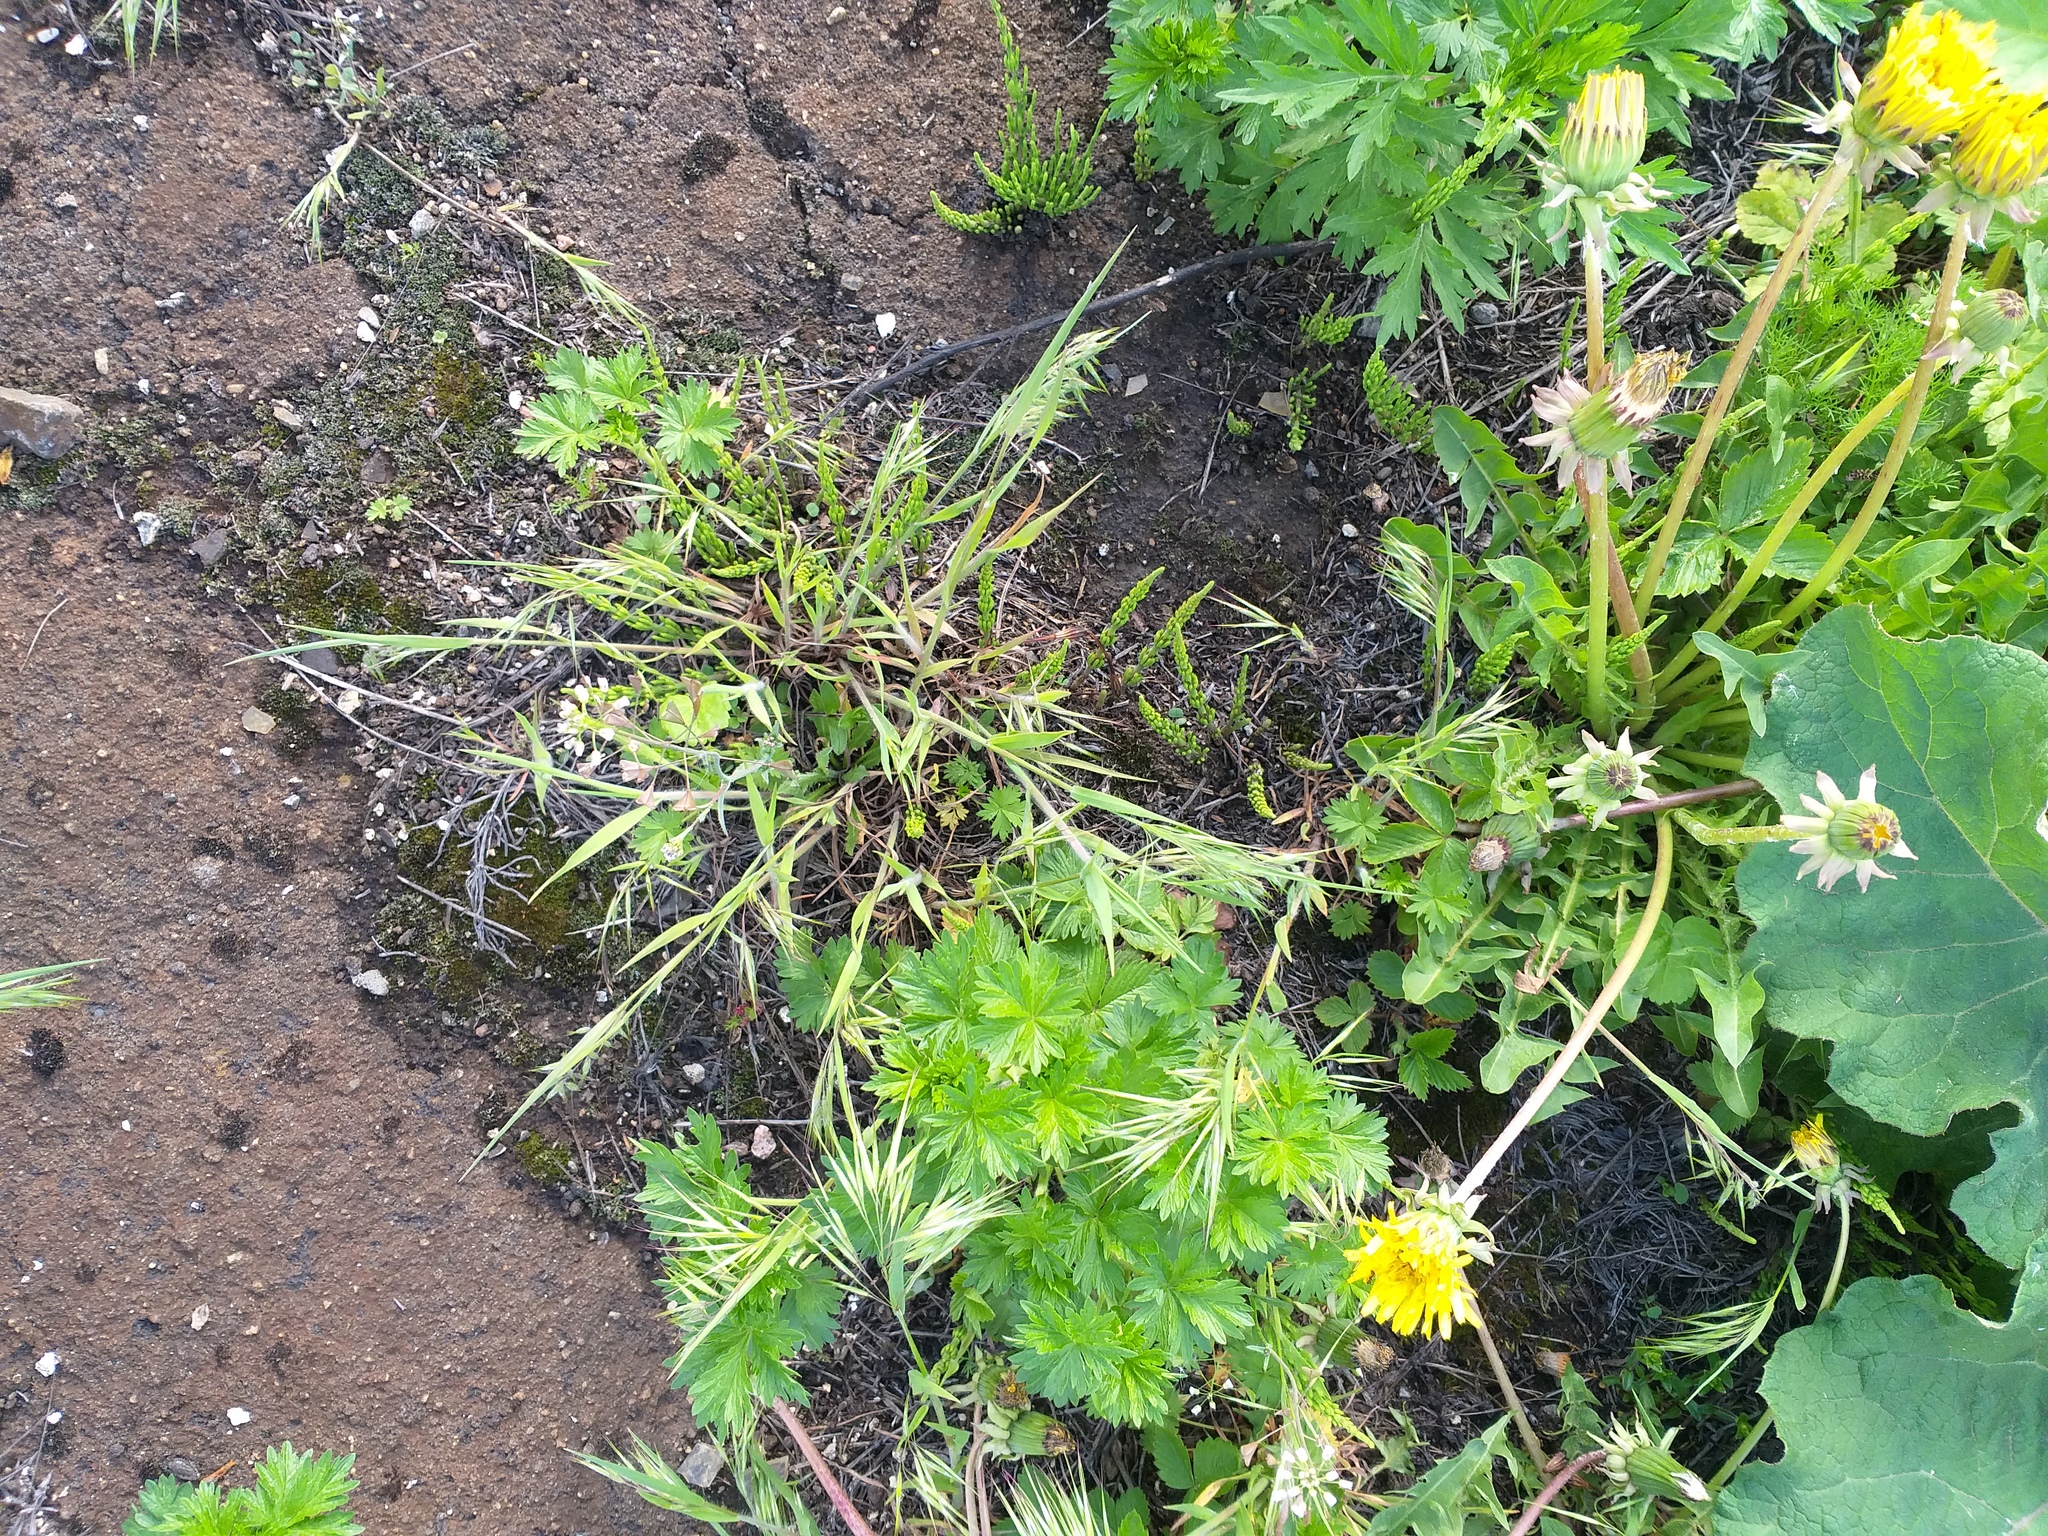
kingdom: Plantae
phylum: Tracheophyta
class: Liliopsida
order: Poales
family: Poaceae
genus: Bromus
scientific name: Bromus tectorum
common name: Cheatgrass
